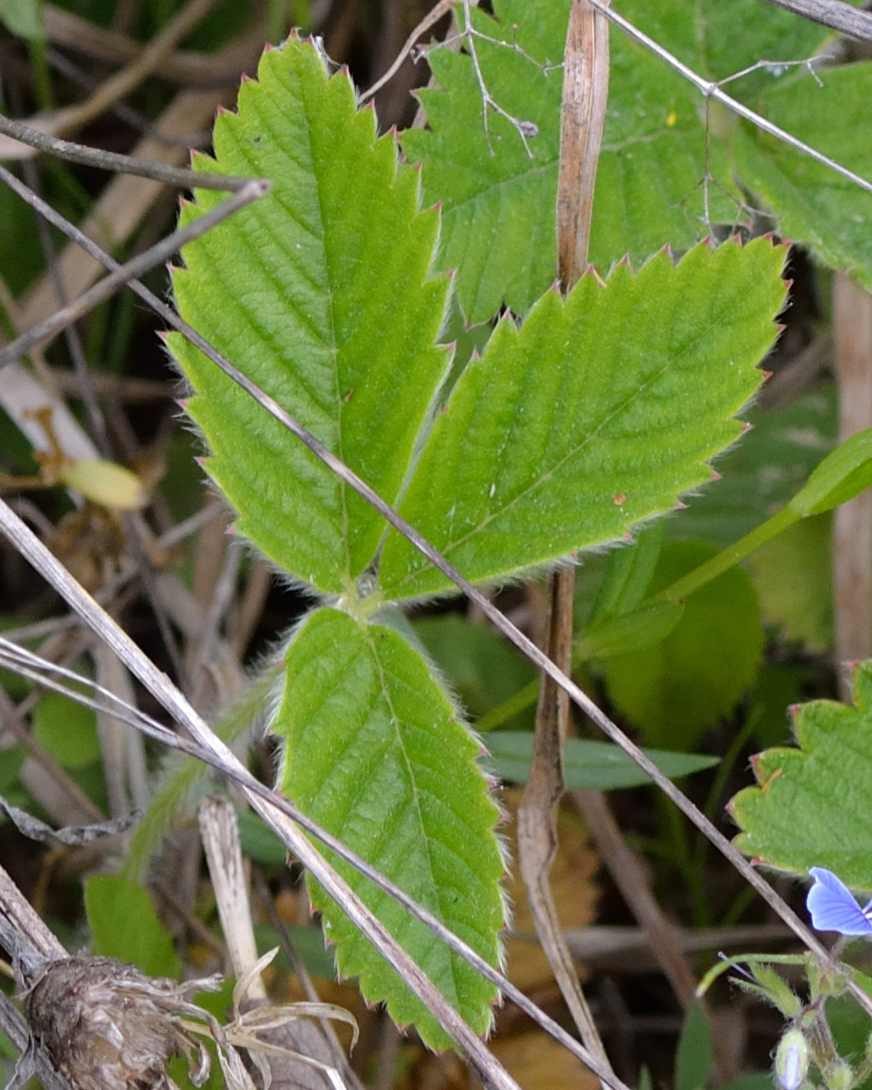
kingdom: Plantae
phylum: Tracheophyta
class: Magnoliopsida
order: Rosales
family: Rosaceae
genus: Fragaria
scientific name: Fragaria viridis
